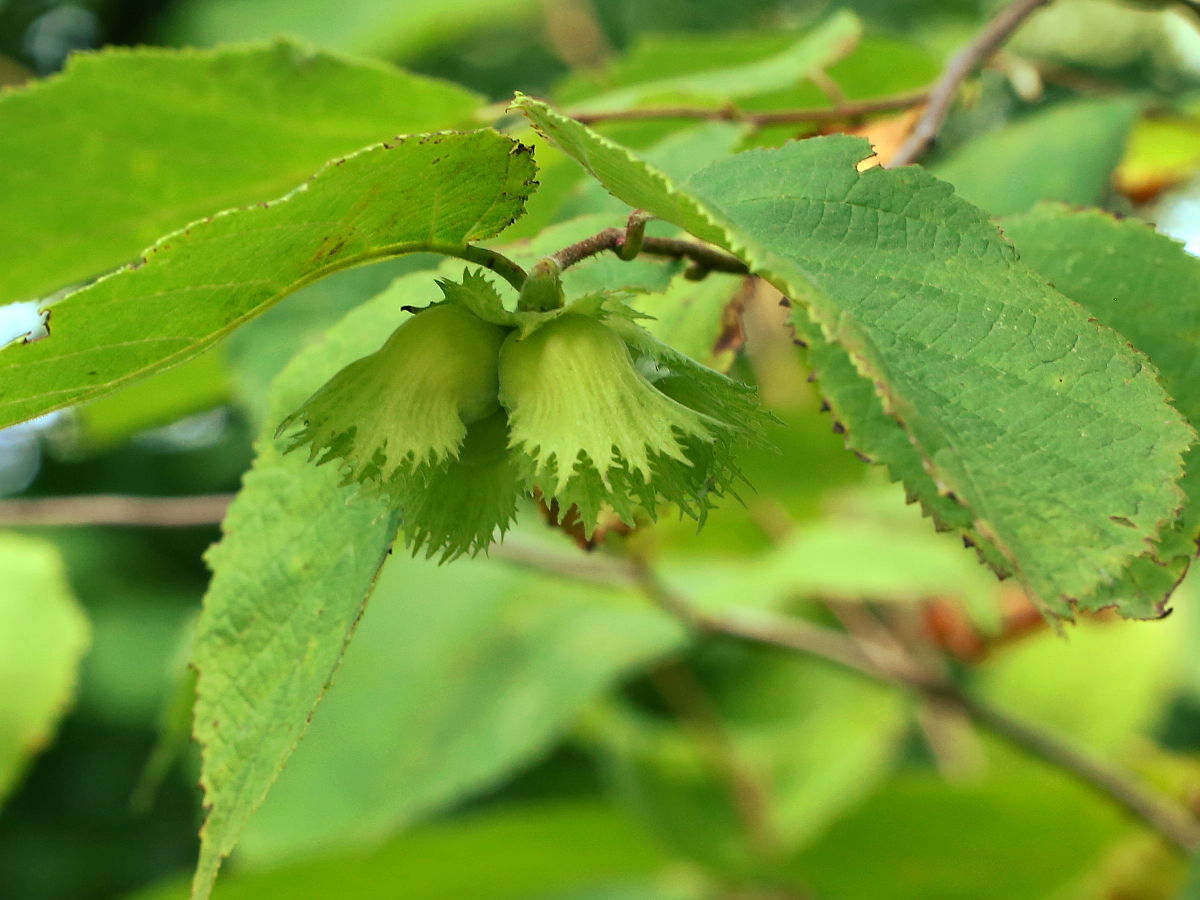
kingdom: Plantae
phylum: Tracheophyta
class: Magnoliopsida
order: Fagales
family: Betulaceae
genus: Corylus
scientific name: Corylus americana
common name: American hazel
